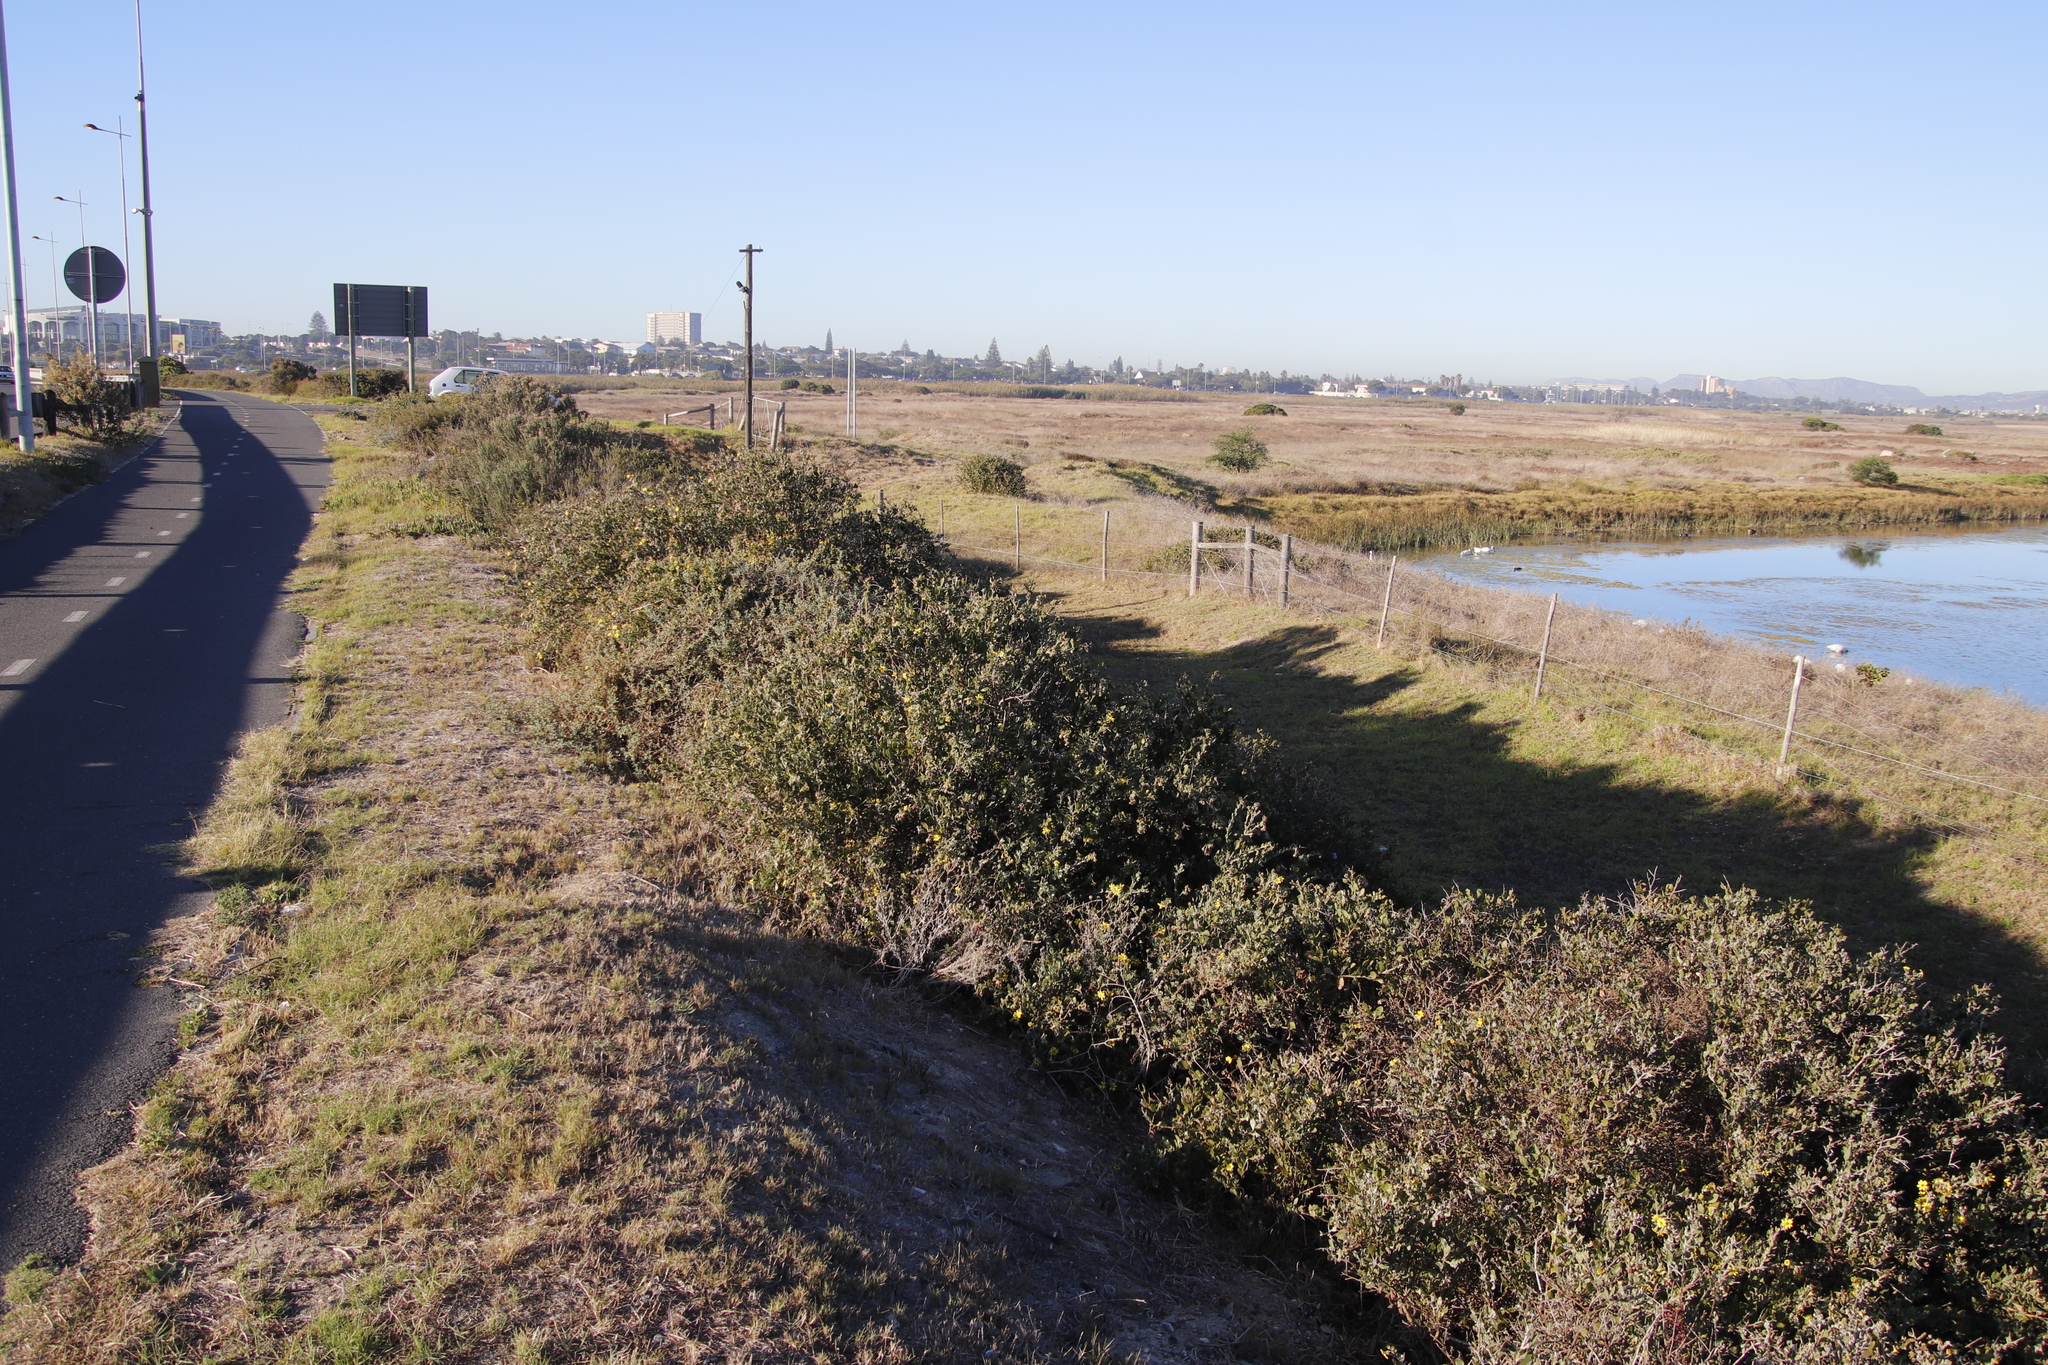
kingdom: Plantae
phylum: Tracheophyta
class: Magnoliopsida
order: Asterales
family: Asteraceae
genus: Osteospermum
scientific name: Osteospermum incanum
